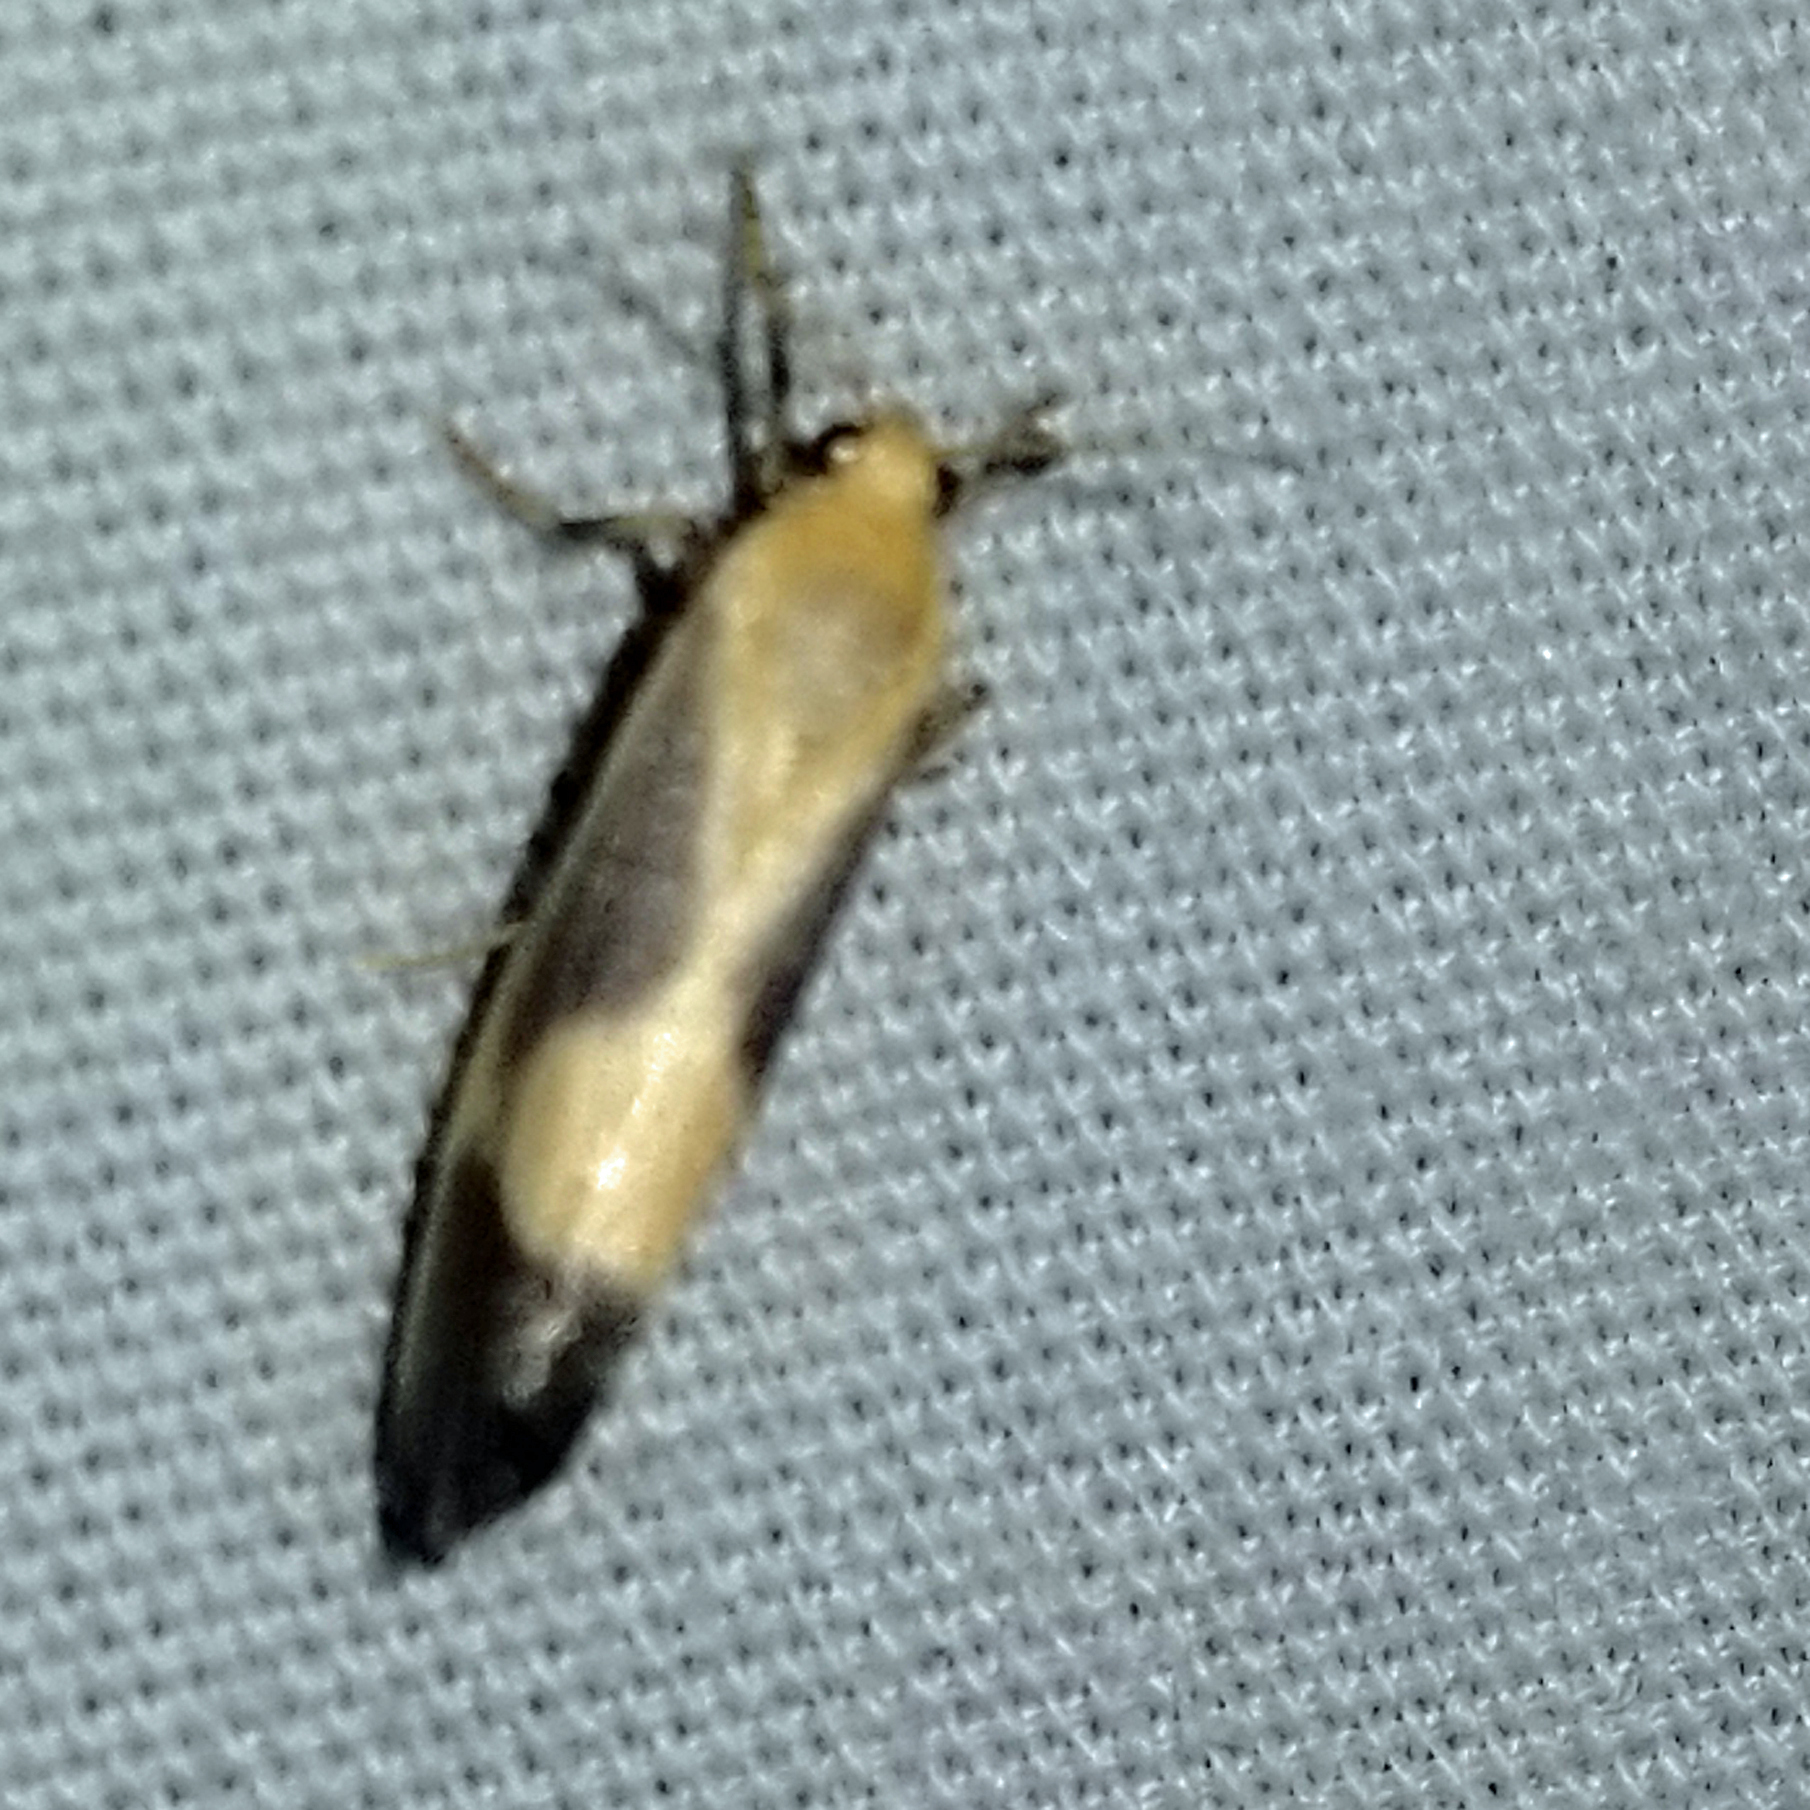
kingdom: Animalia
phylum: Arthropoda
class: Insecta
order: Lepidoptera
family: Erebidae
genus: Cisthene
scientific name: Cisthene plumbea
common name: Lead colored lichen moth
